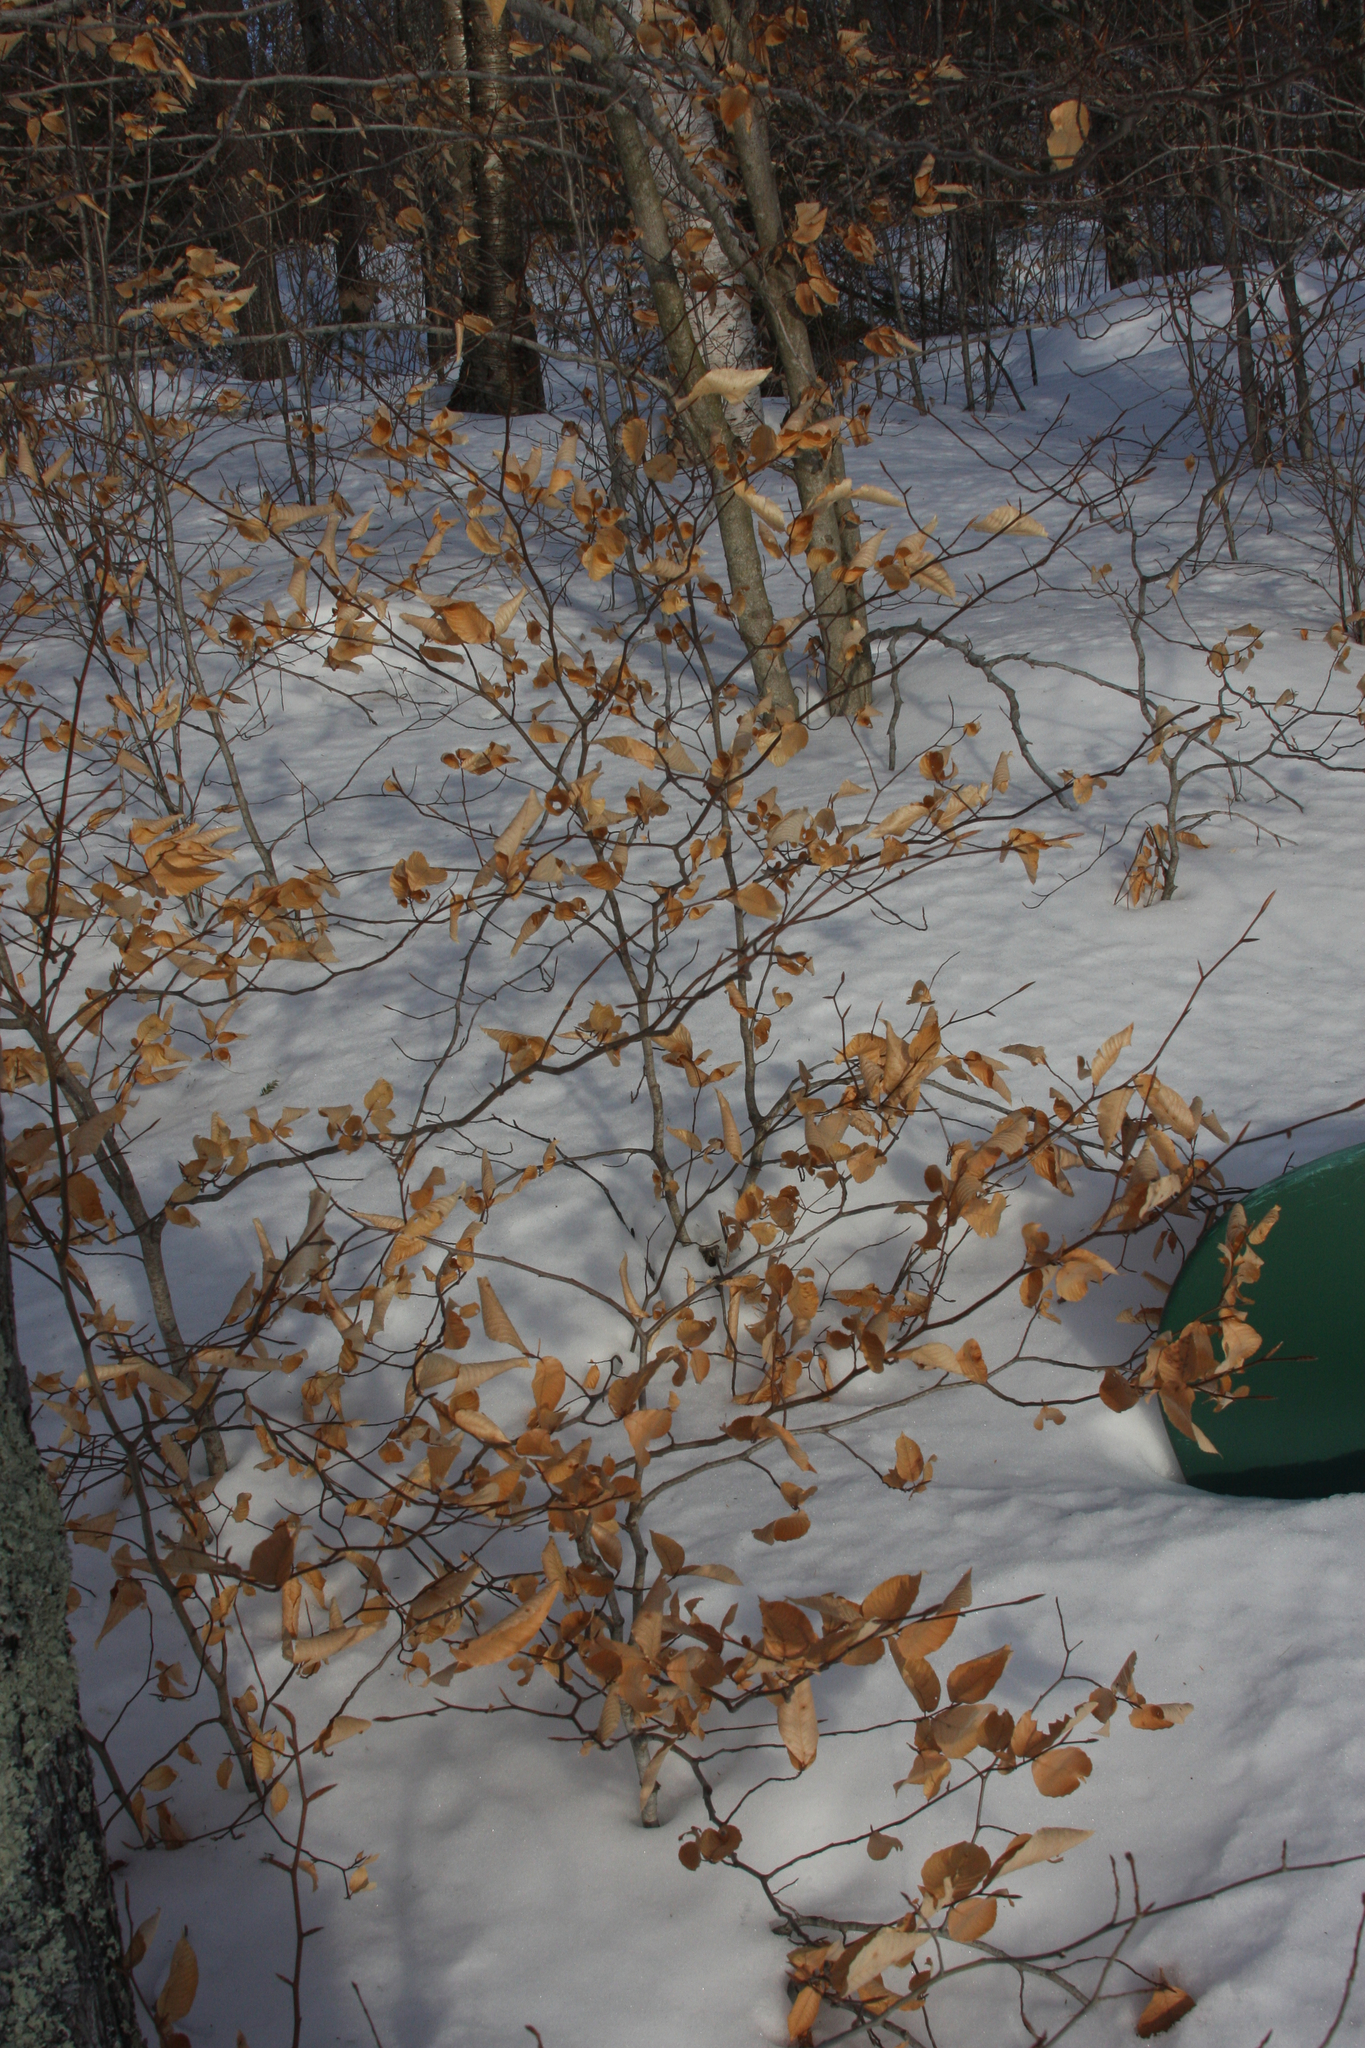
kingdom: Plantae
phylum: Tracheophyta
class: Magnoliopsida
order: Fagales
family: Fagaceae
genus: Fagus
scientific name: Fagus grandifolia
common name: American beech
